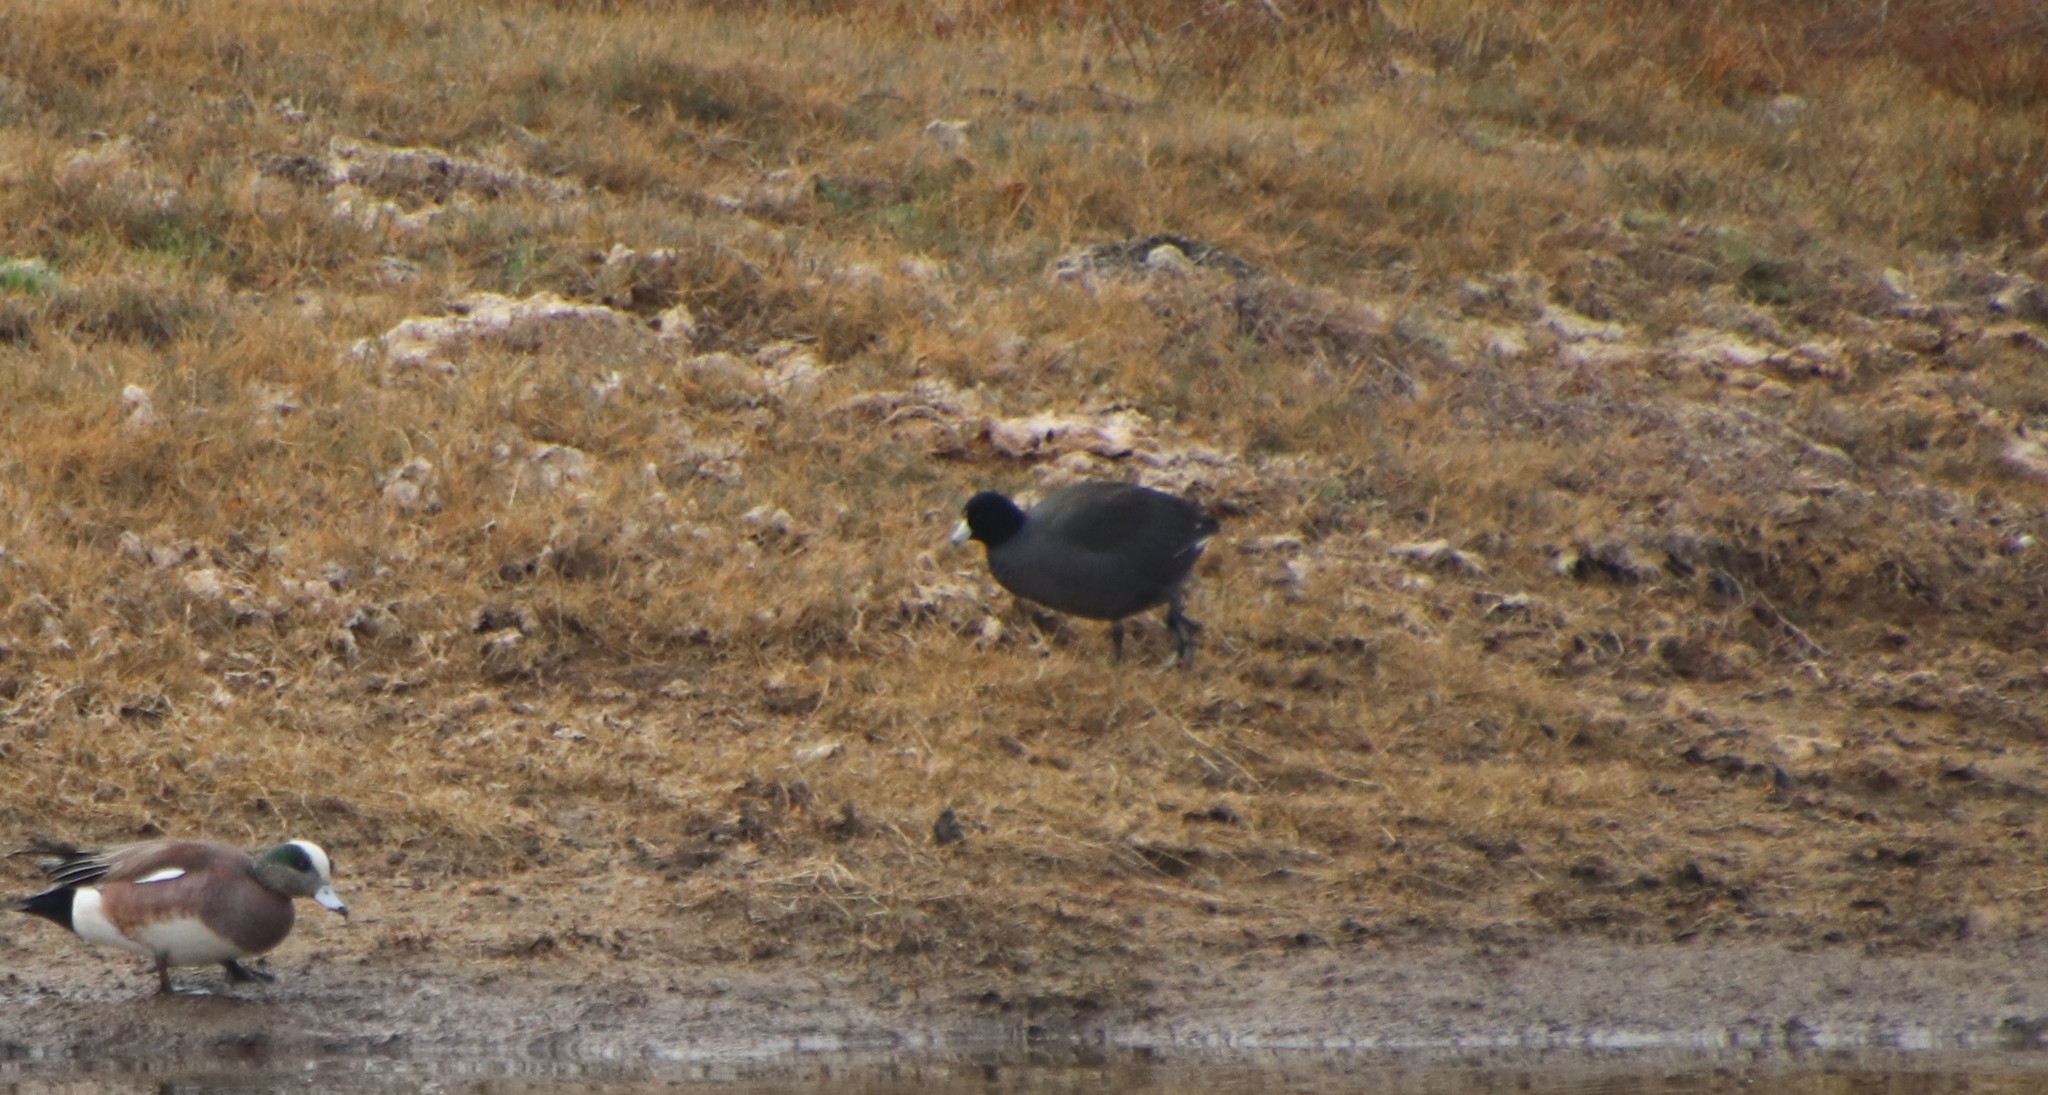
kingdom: Animalia
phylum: Chordata
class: Aves
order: Gruiformes
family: Rallidae
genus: Fulica
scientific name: Fulica americana
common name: American coot
